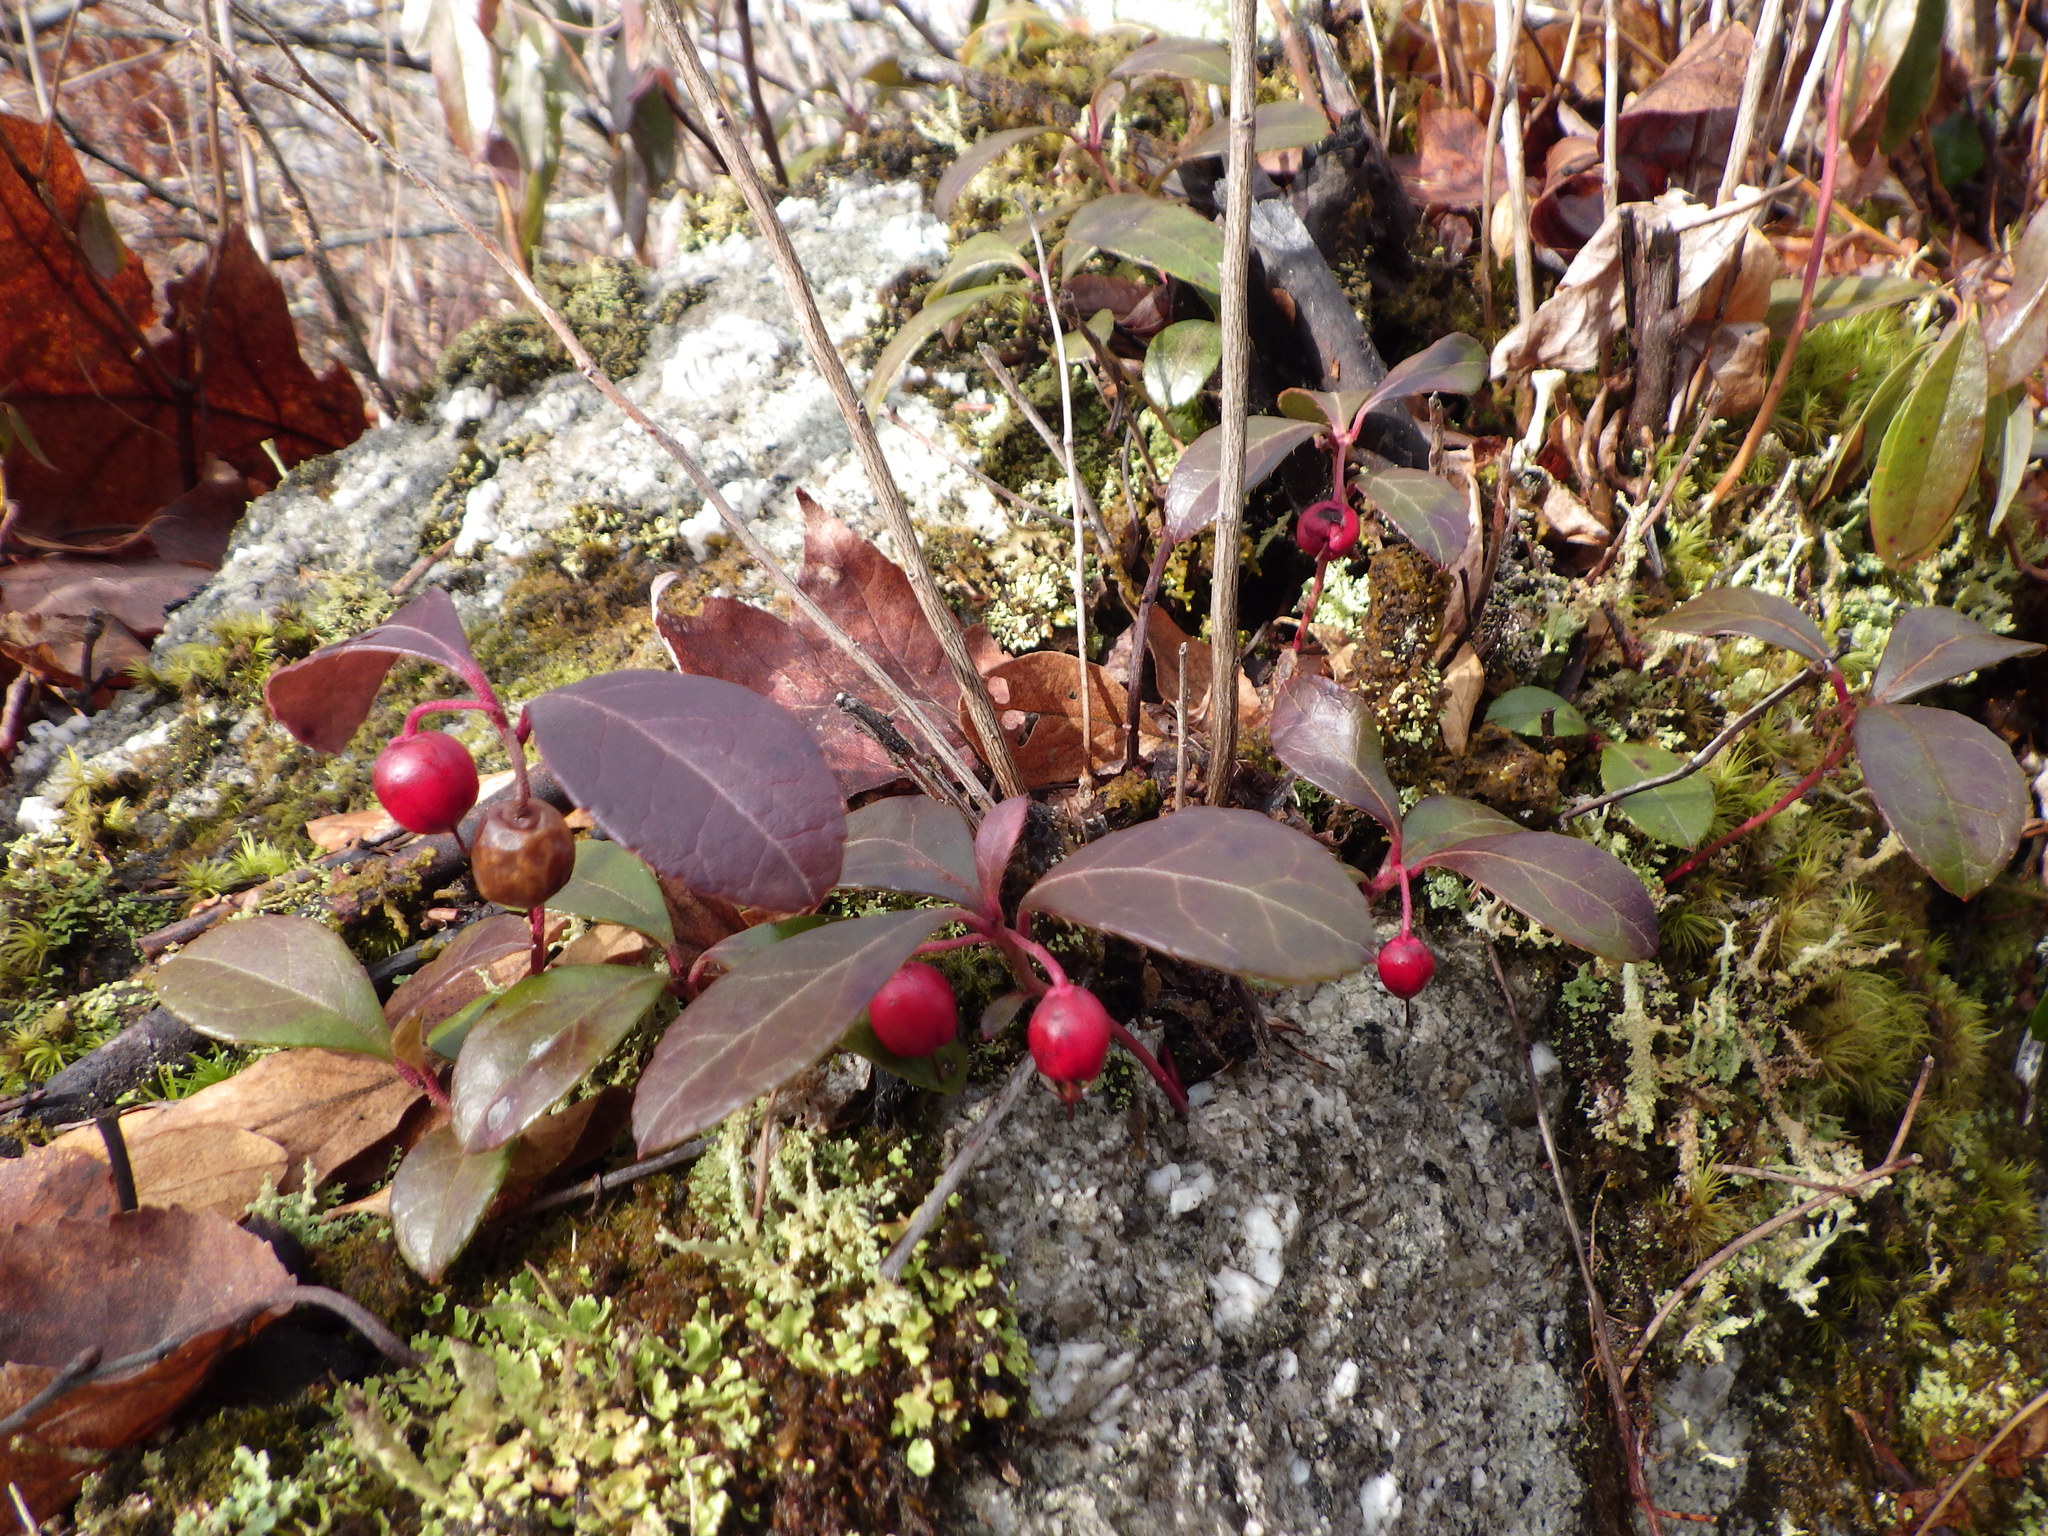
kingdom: Plantae
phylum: Tracheophyta
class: Magnoliopsida
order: Ericales
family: Ericaceae
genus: Gaultheria
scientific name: Gaultheria procumbens
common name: Checkerberry
